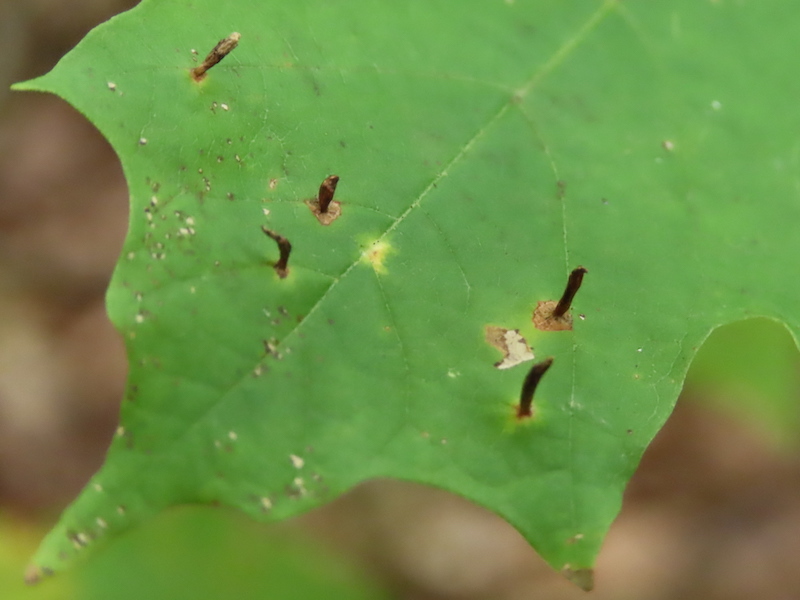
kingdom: Animalia
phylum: Arthropoda
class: Arachnida
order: Trombidiformes
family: Eriophyidae
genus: Vasates
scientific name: Vasates aceriscrumena
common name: Maple spindle gall mite
